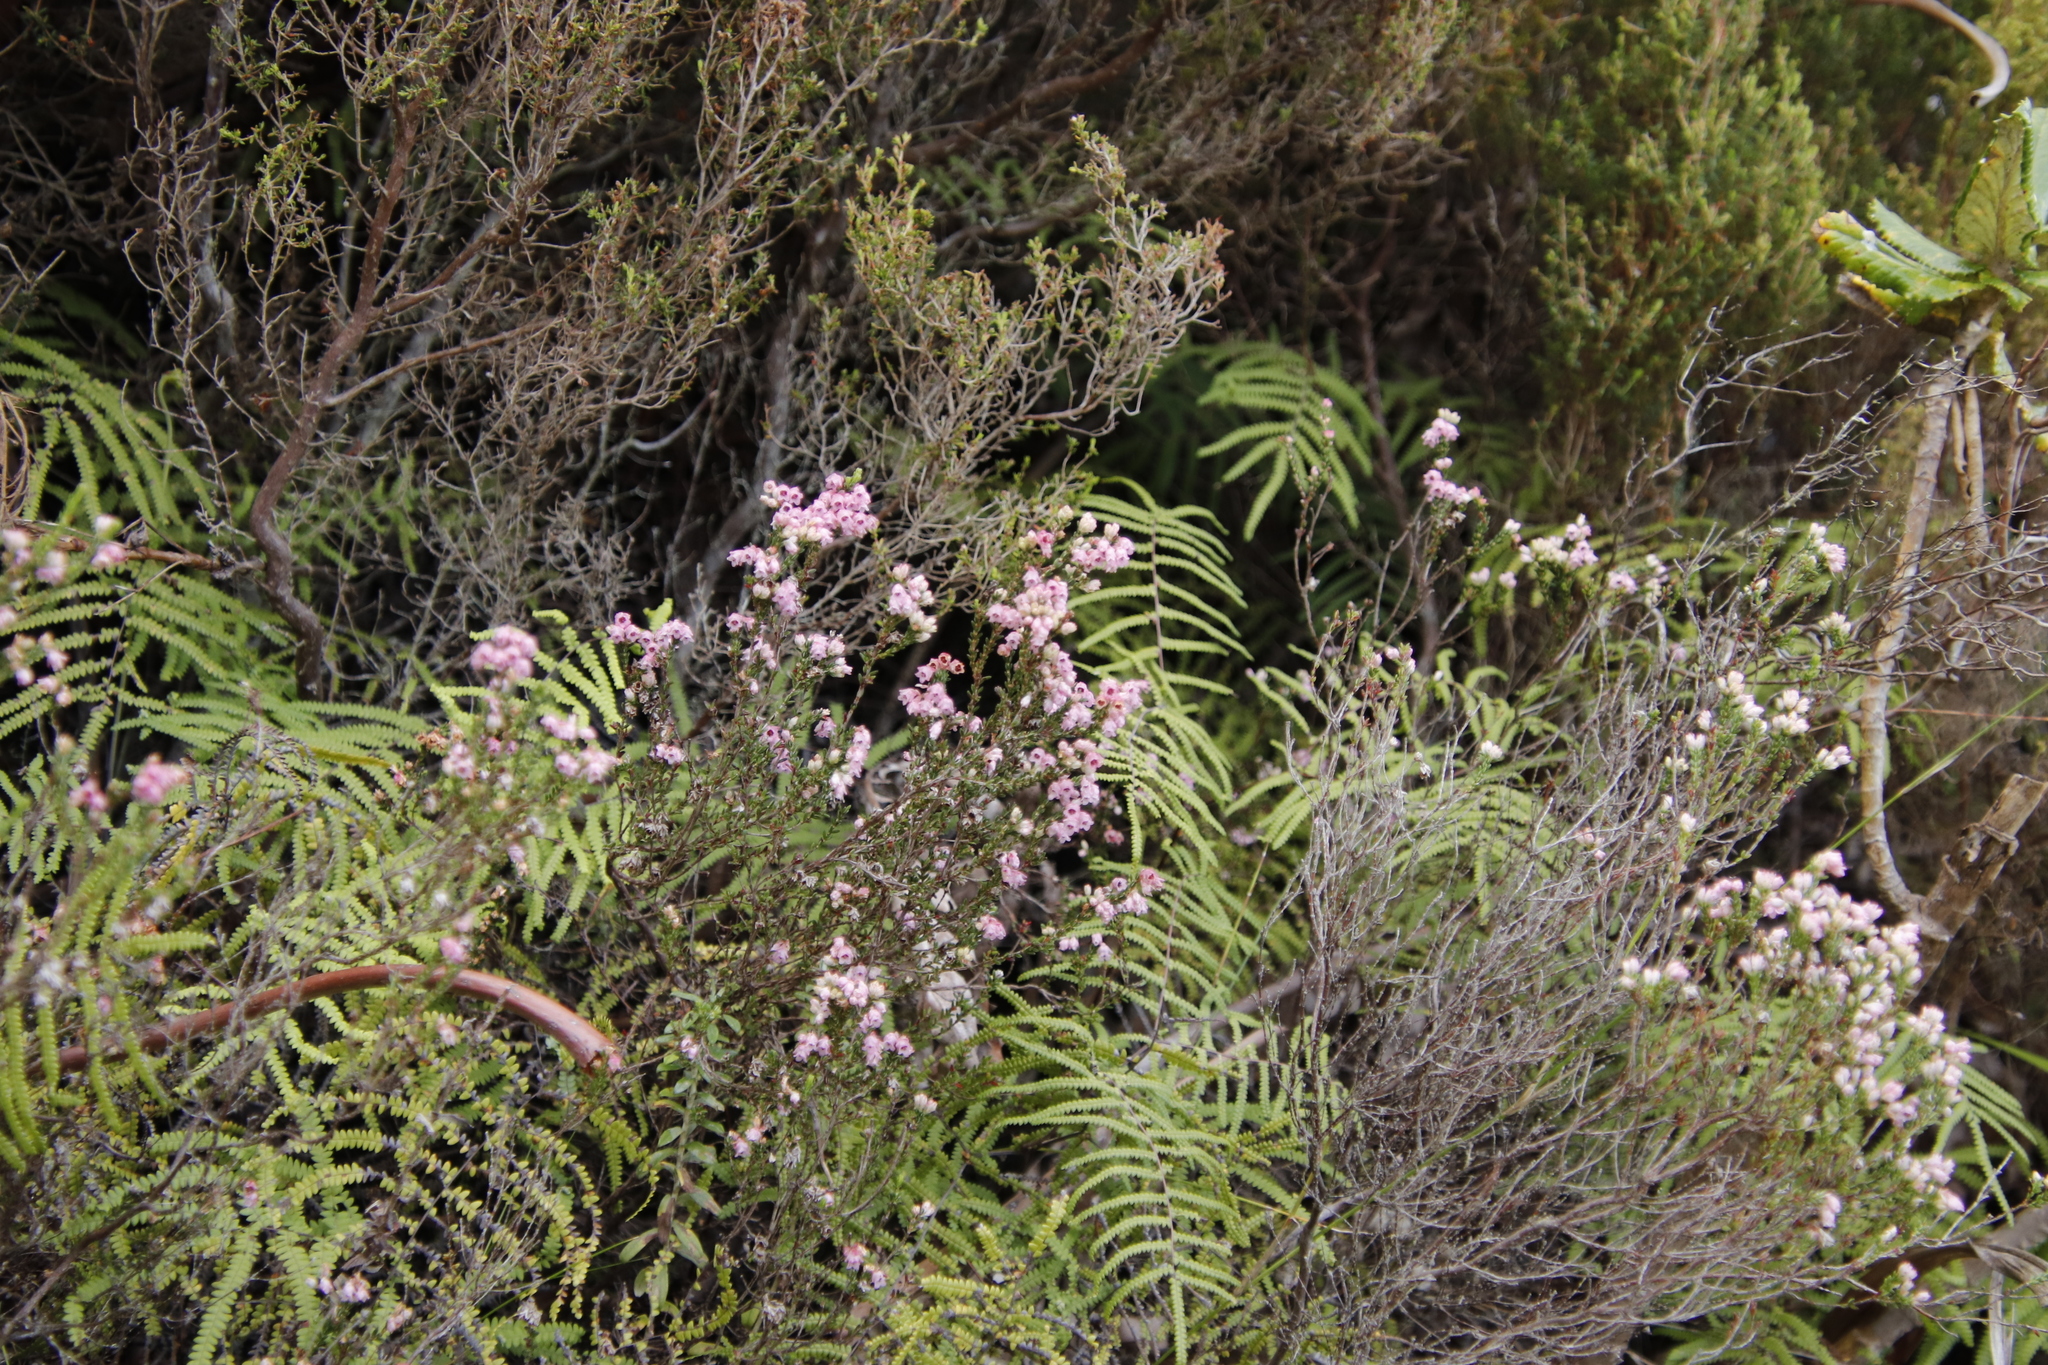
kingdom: Plantae
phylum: Tracheophyta
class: Magnoliopsida
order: Ericales
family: Ericaceae
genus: Erica
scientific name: Erica brevifolia
